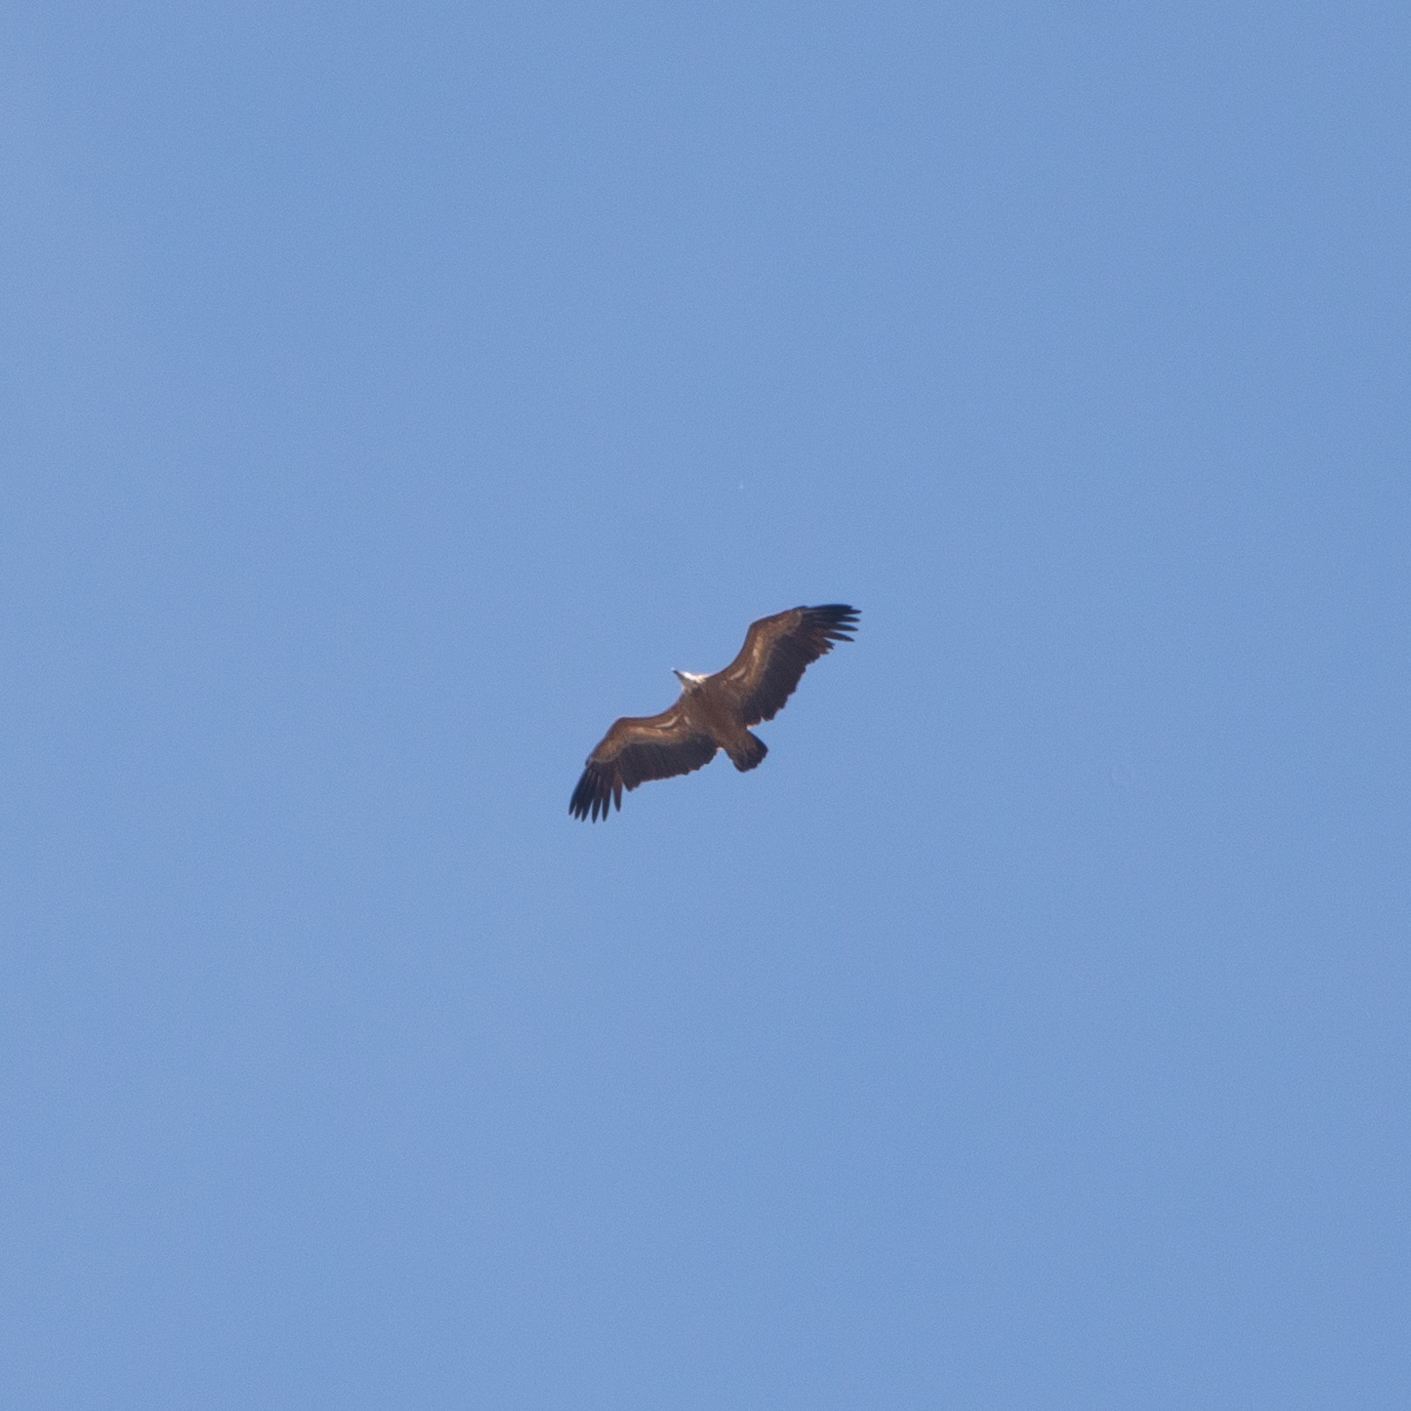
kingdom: Animalia
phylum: Chordata
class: Aves
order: Accipitriformes
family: Accipitridae
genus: Gyps
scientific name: Gyps fulvus
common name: Griffon vulture
